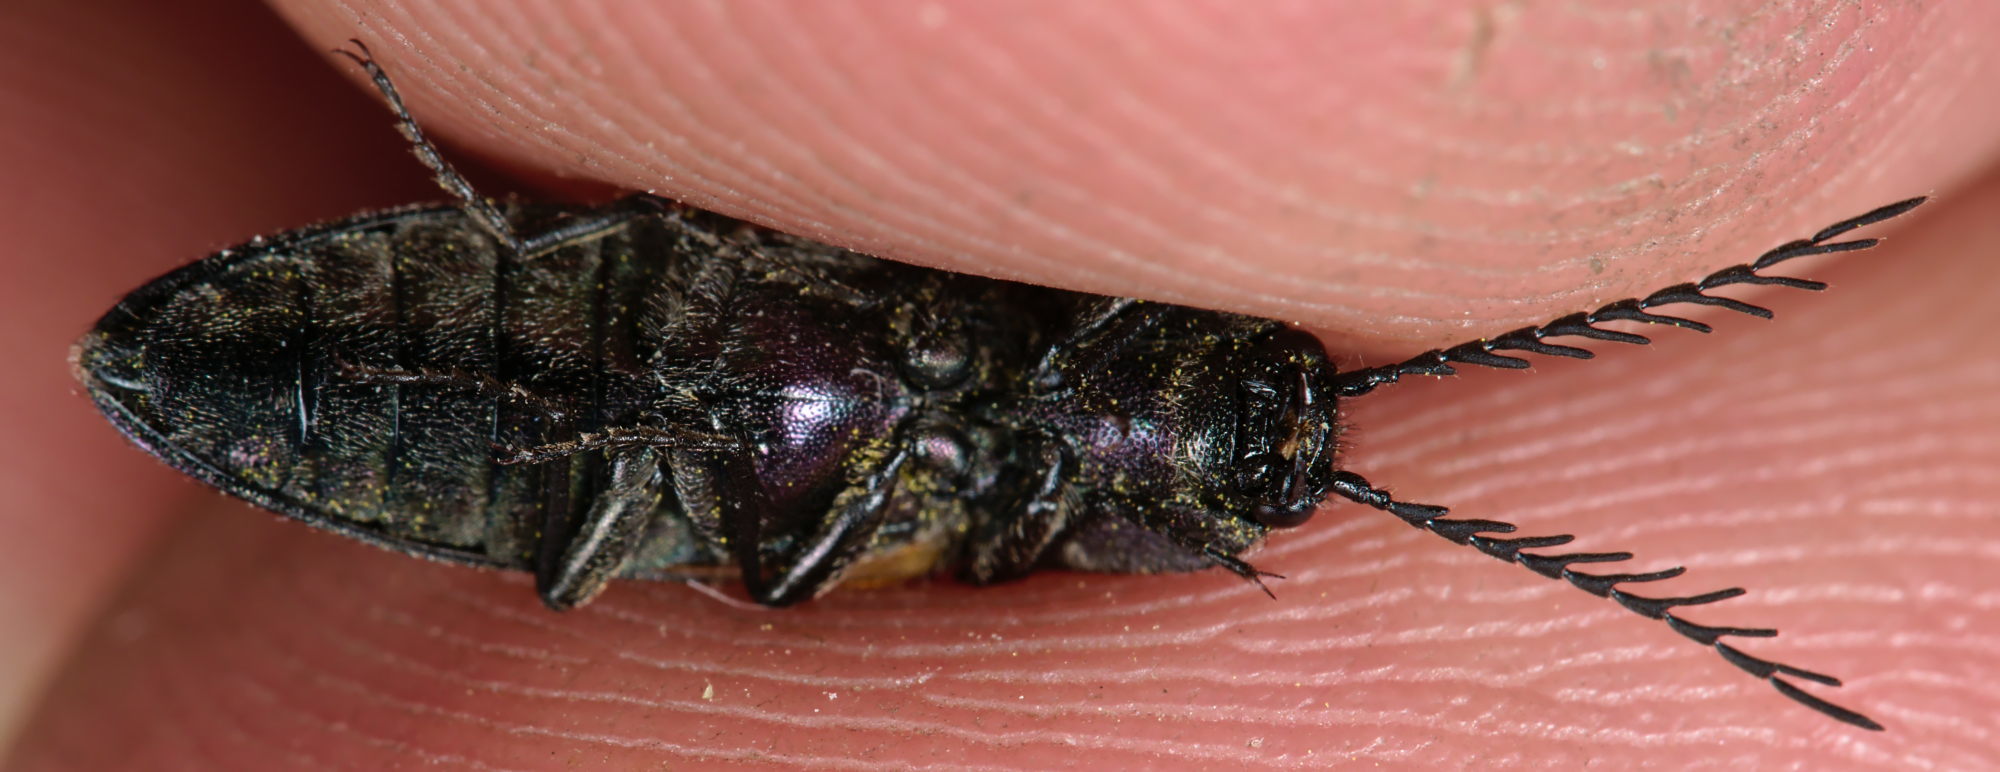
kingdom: Animalia
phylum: Arthropoda
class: Insecta
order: Coleoptera
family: Elateridae
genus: Ctenicera
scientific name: Ctenicera cuprea
